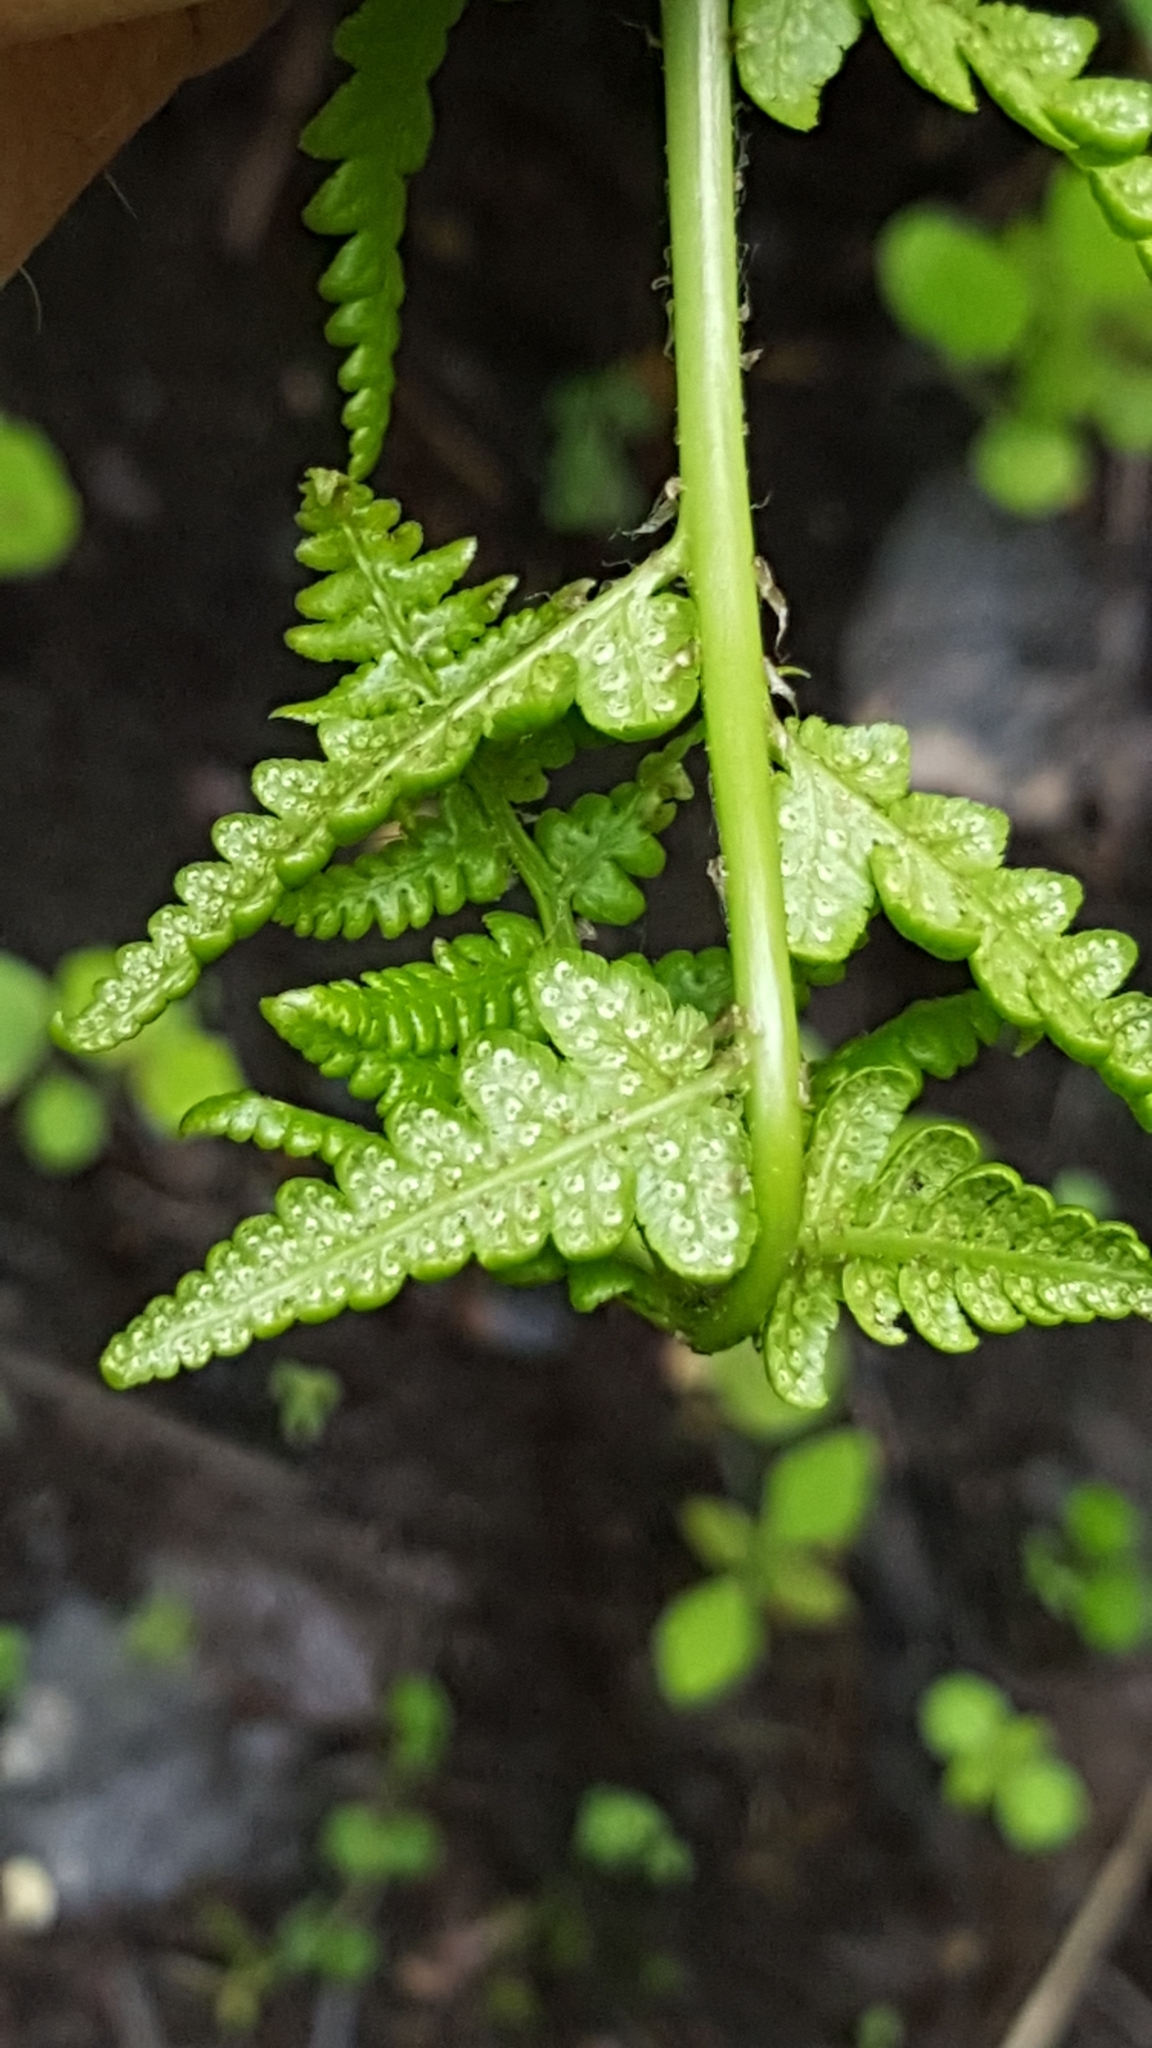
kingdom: Plantae
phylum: Tracheophyta
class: Polypodiopsida
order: Polypodiales
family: Dryopteridaceae
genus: Dryopteris
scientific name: Dryopteris cristata
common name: Crested wood fern
